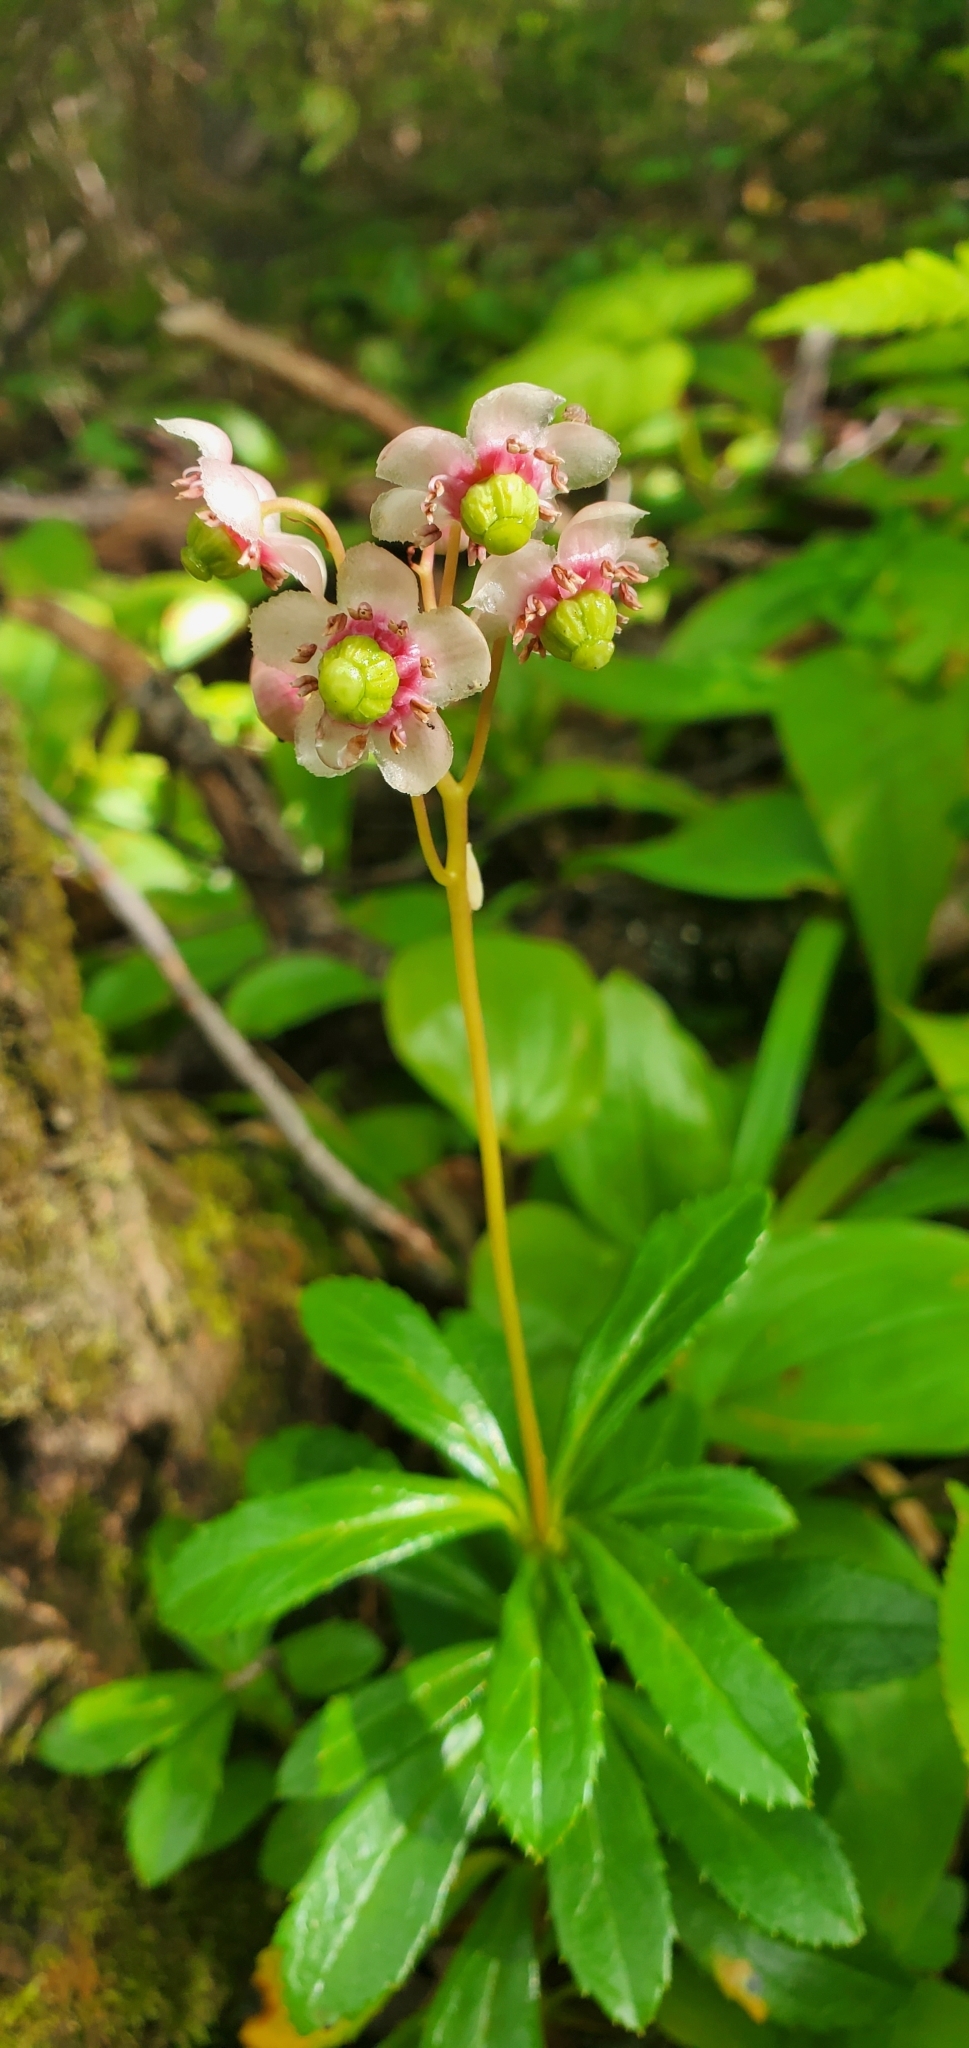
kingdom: Plantae
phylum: Tracheophyta
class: Magnoliopsida
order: Ericales
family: Ericaceae
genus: Chimaphila
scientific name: Chimaphila umbellata
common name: Pipsissewa
